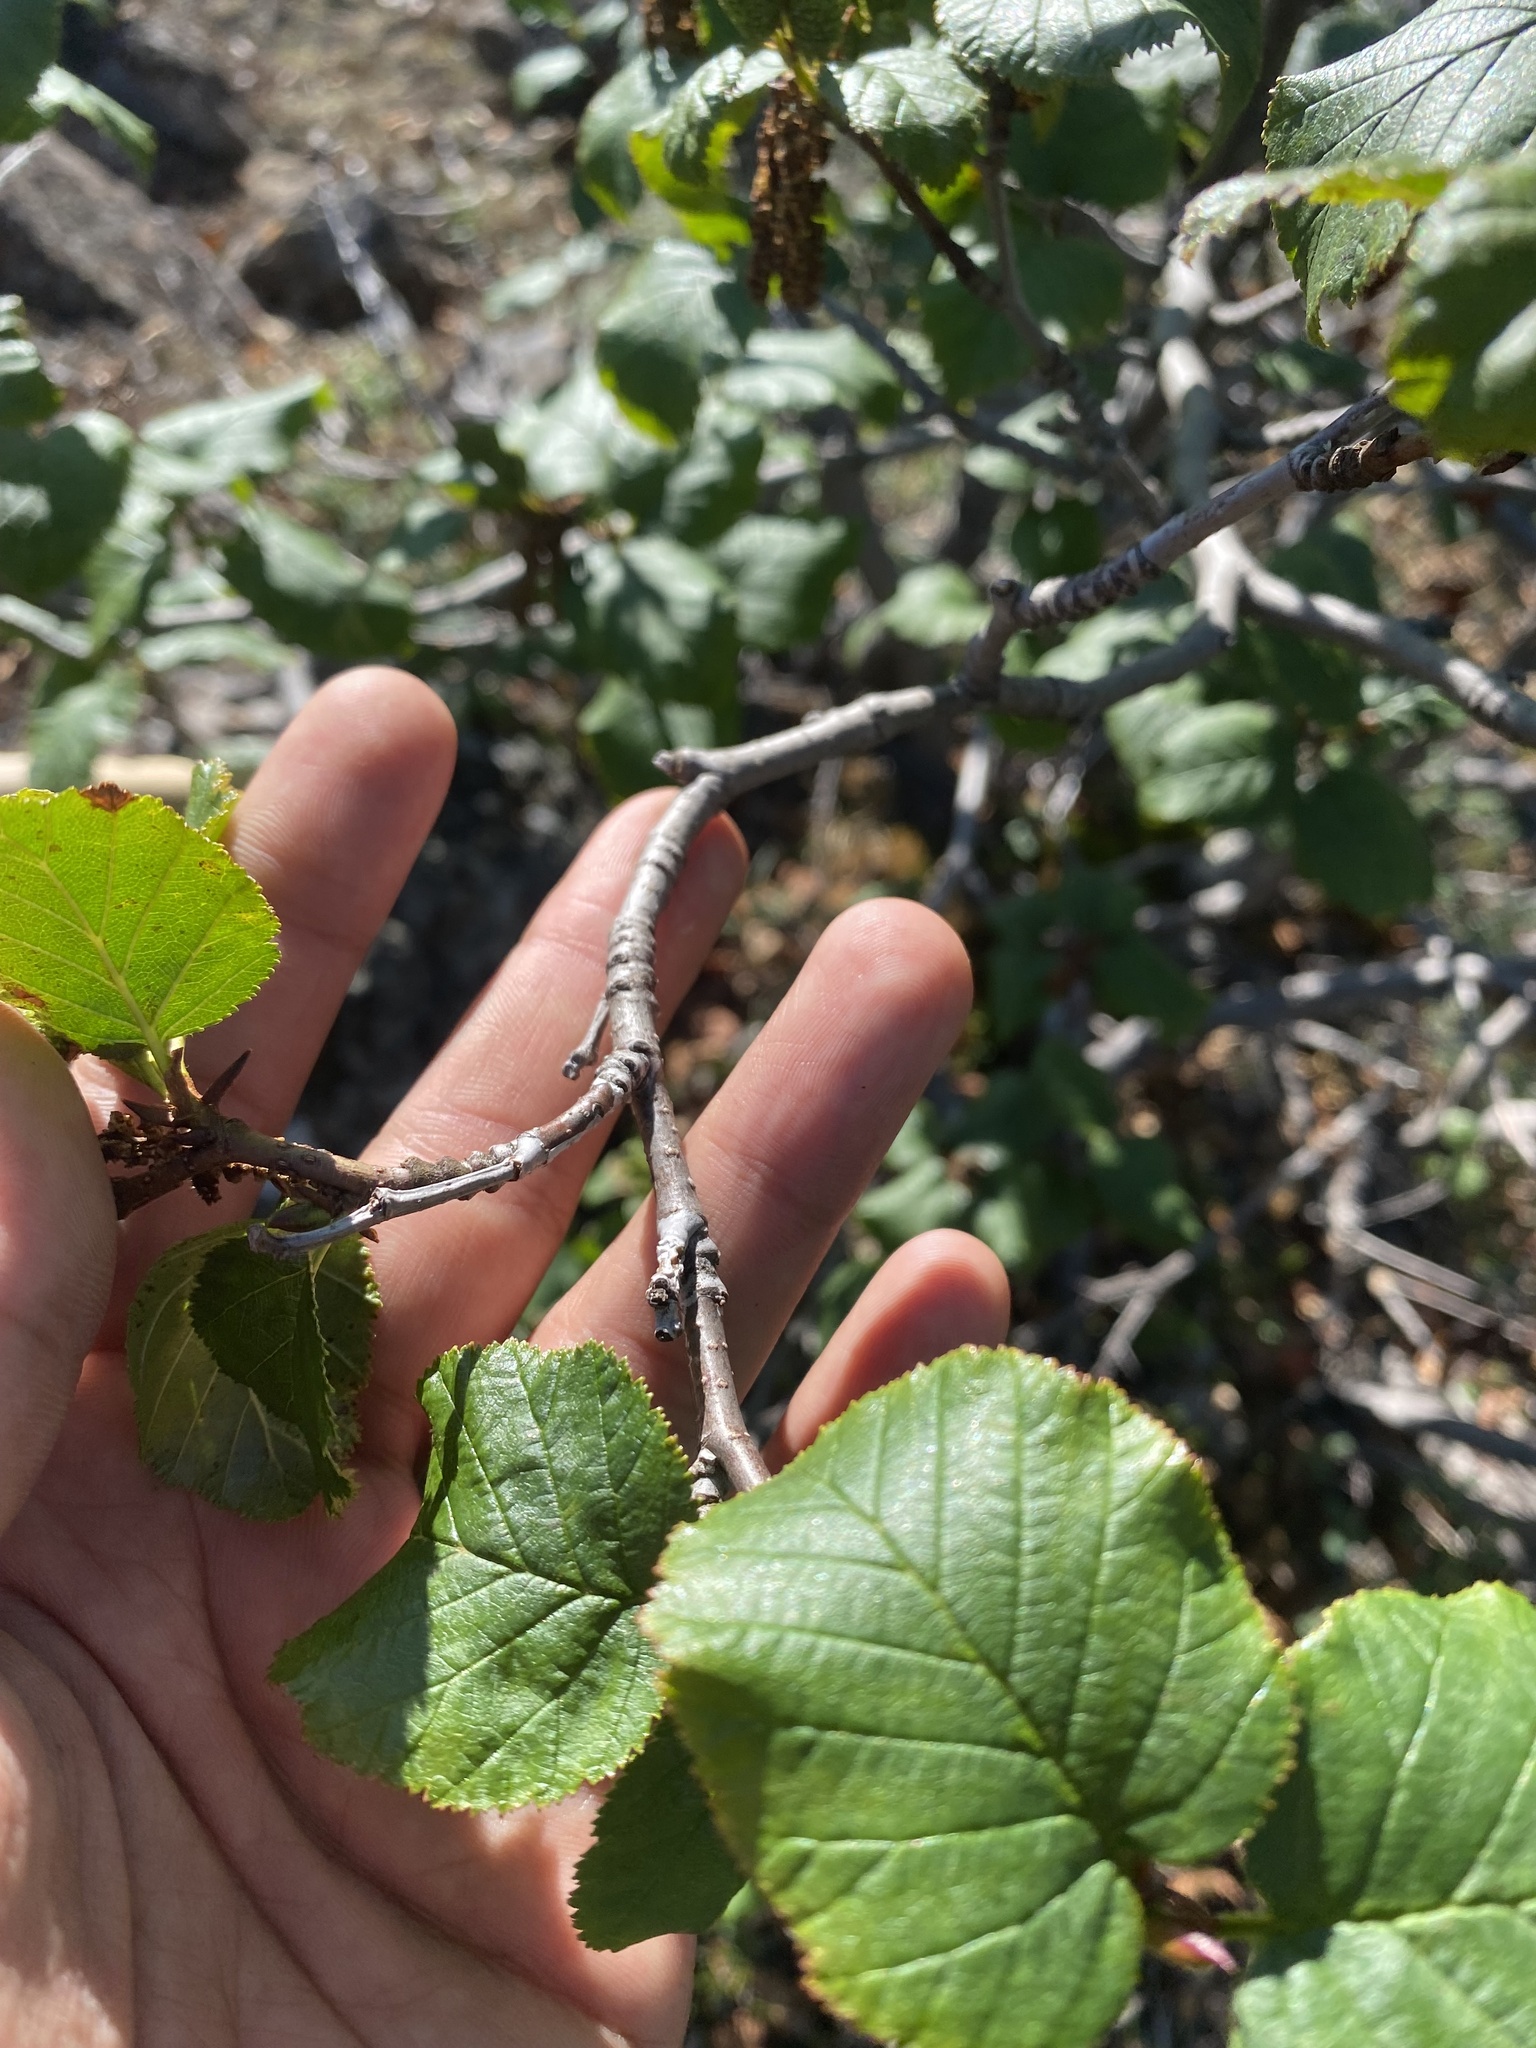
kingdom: Plantae
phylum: Tracheophyta
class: Magnoliopsida
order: Fagales
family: Betulaceae
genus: Alnus
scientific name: Alnus alnobetula
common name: Green alder
